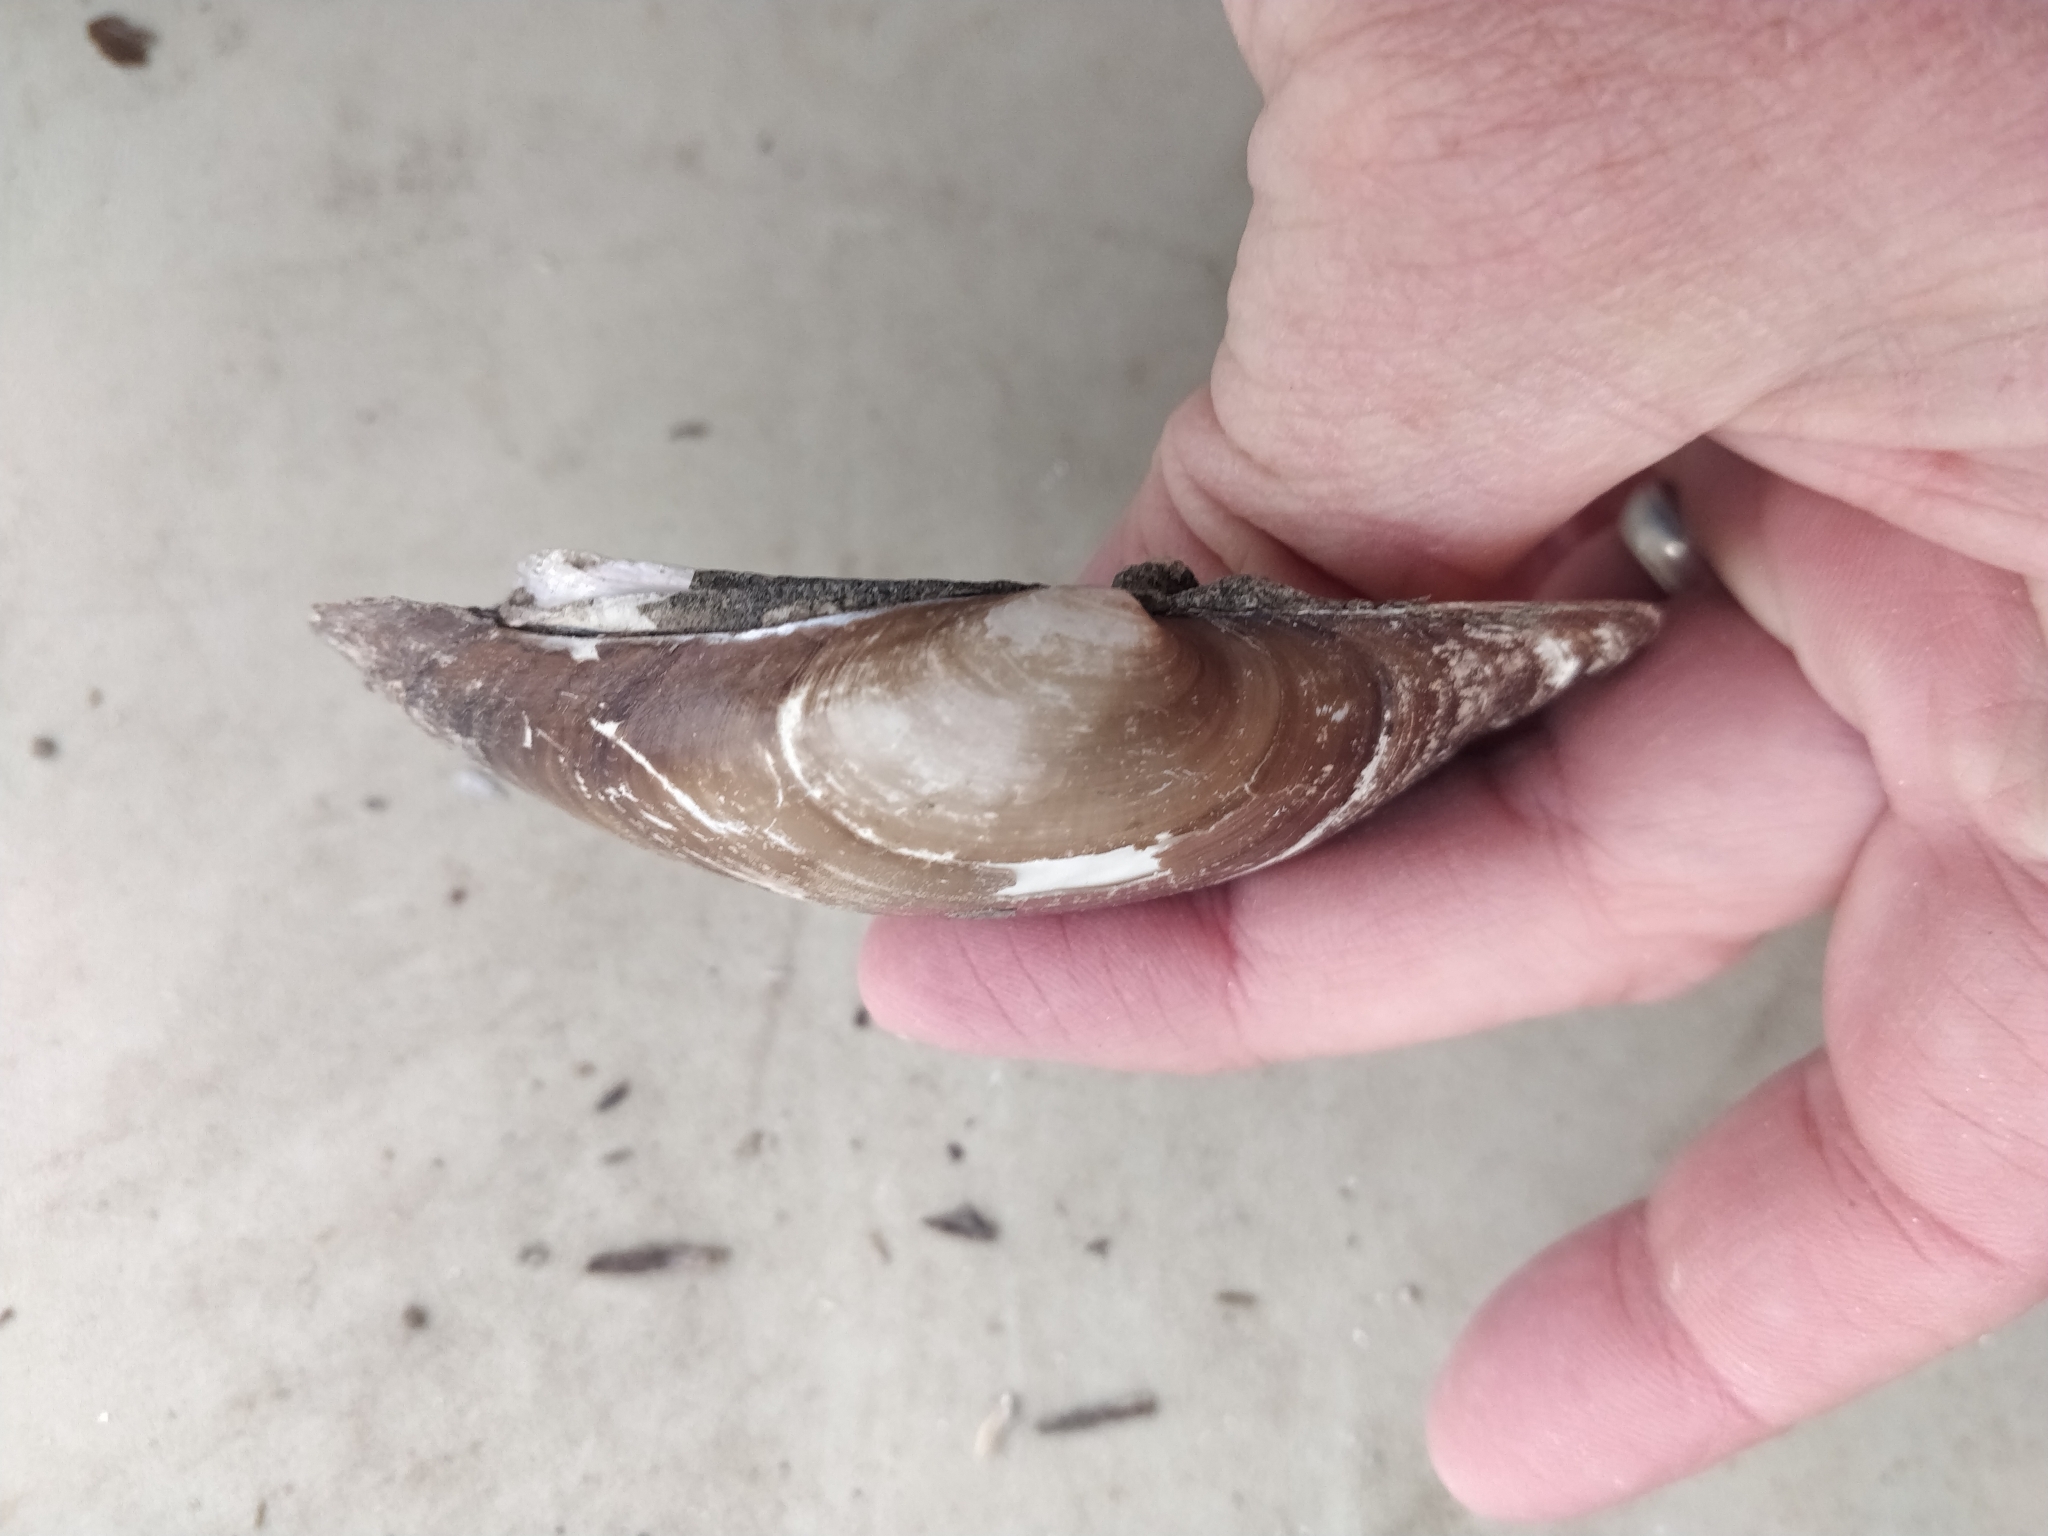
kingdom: Animalia
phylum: Mollusca
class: Bivalvia
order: Unionida
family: Unionidae
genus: Lampsilis
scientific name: Lampsilis cardium
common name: Plain pocketbook
